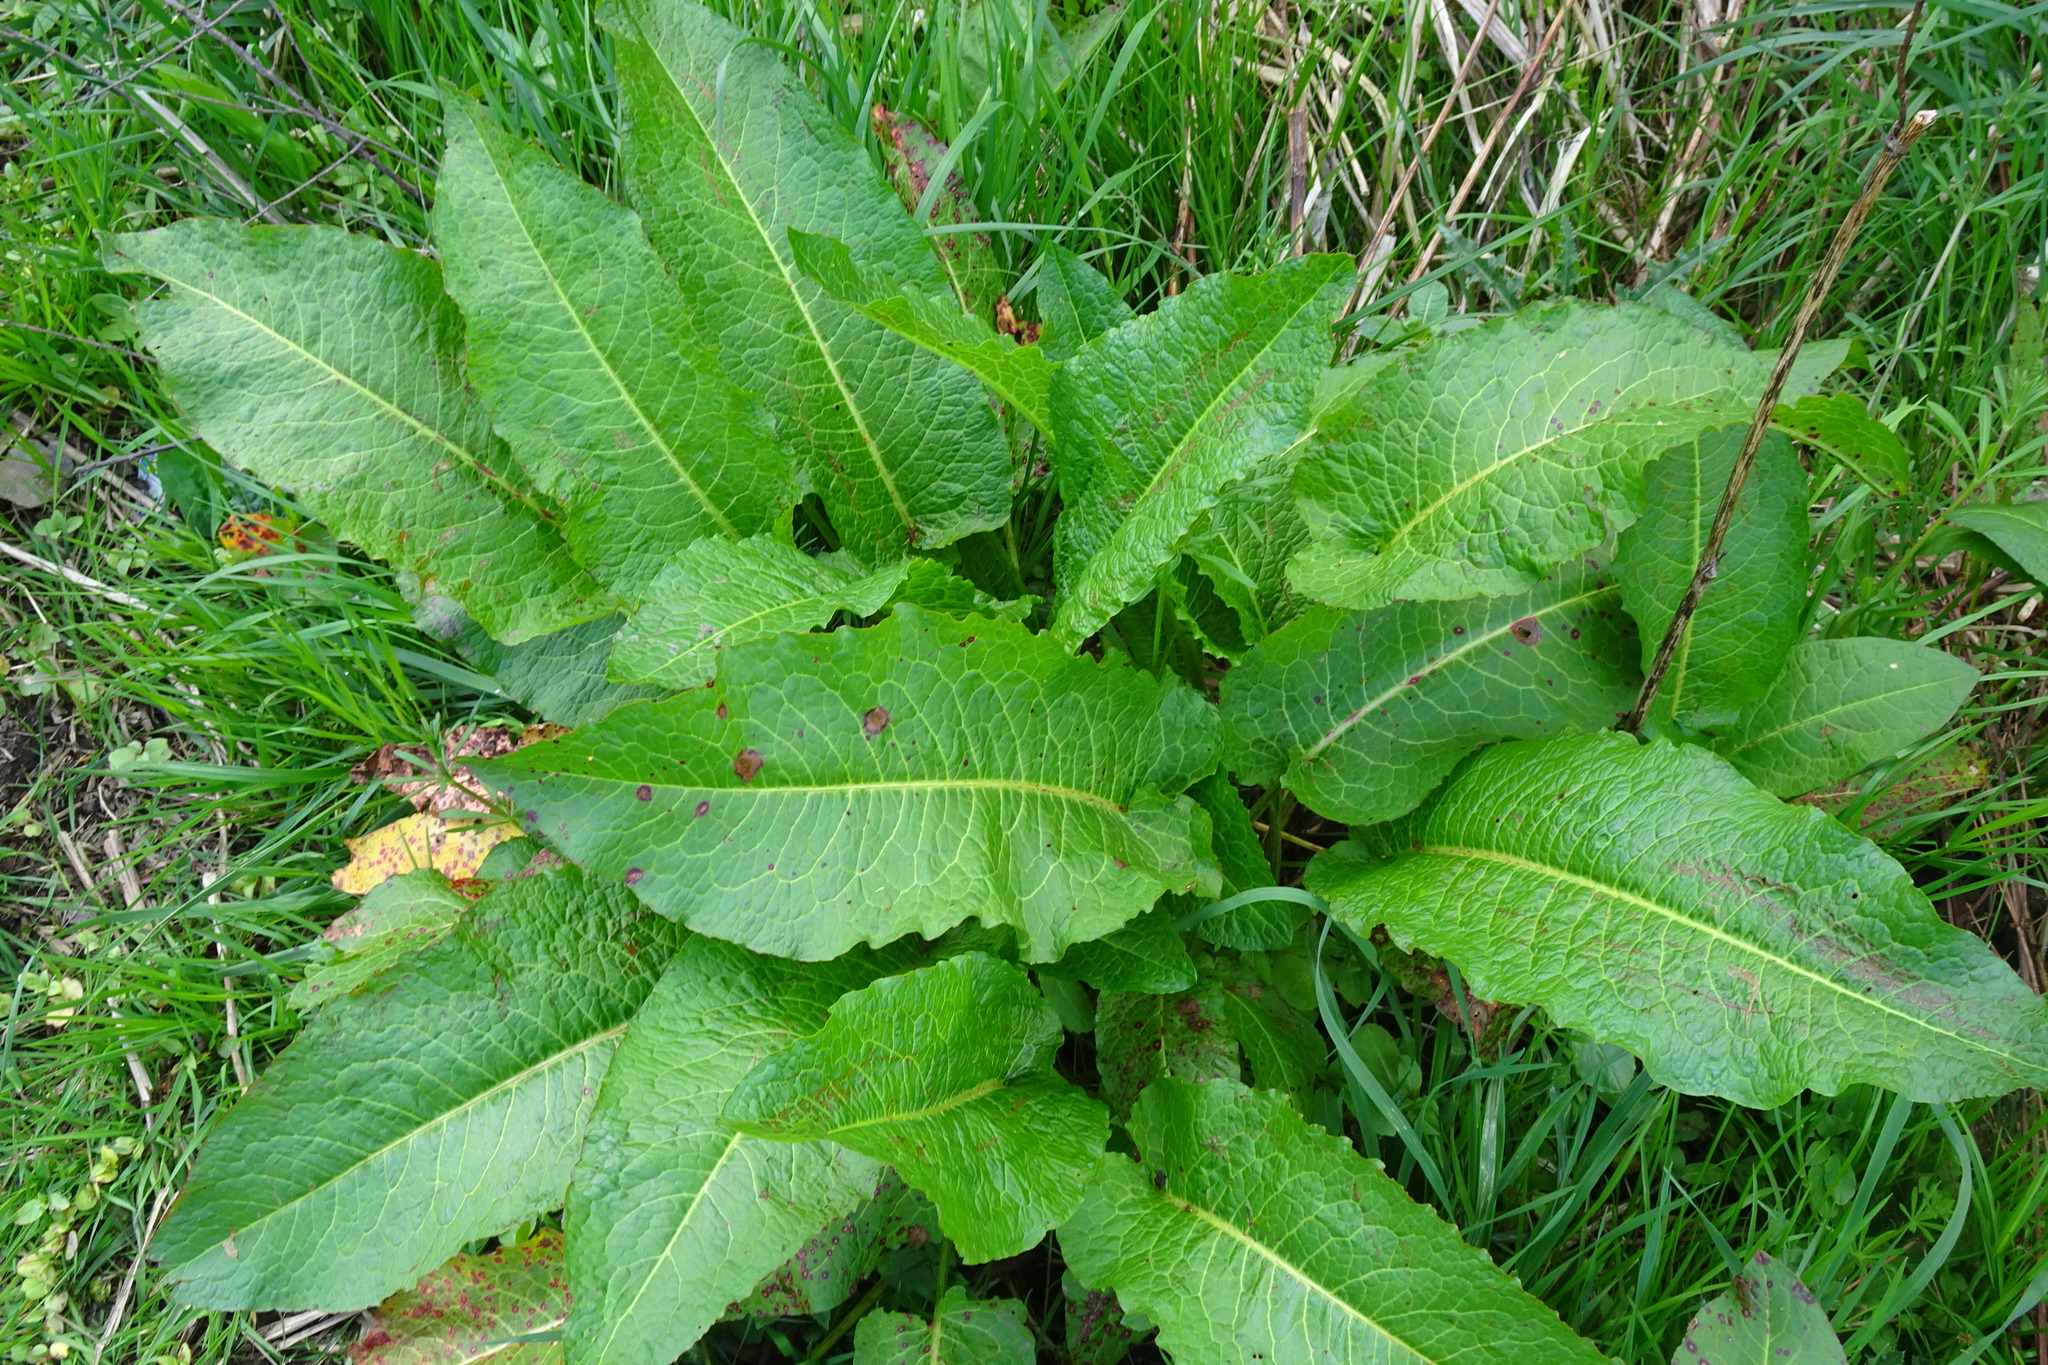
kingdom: Plantae
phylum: Tracheophyta
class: Magnoliopsida
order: Caryophyllales
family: Polygonaceae
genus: Rumex
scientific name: Rumex obtusifolius
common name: Bitter dock
